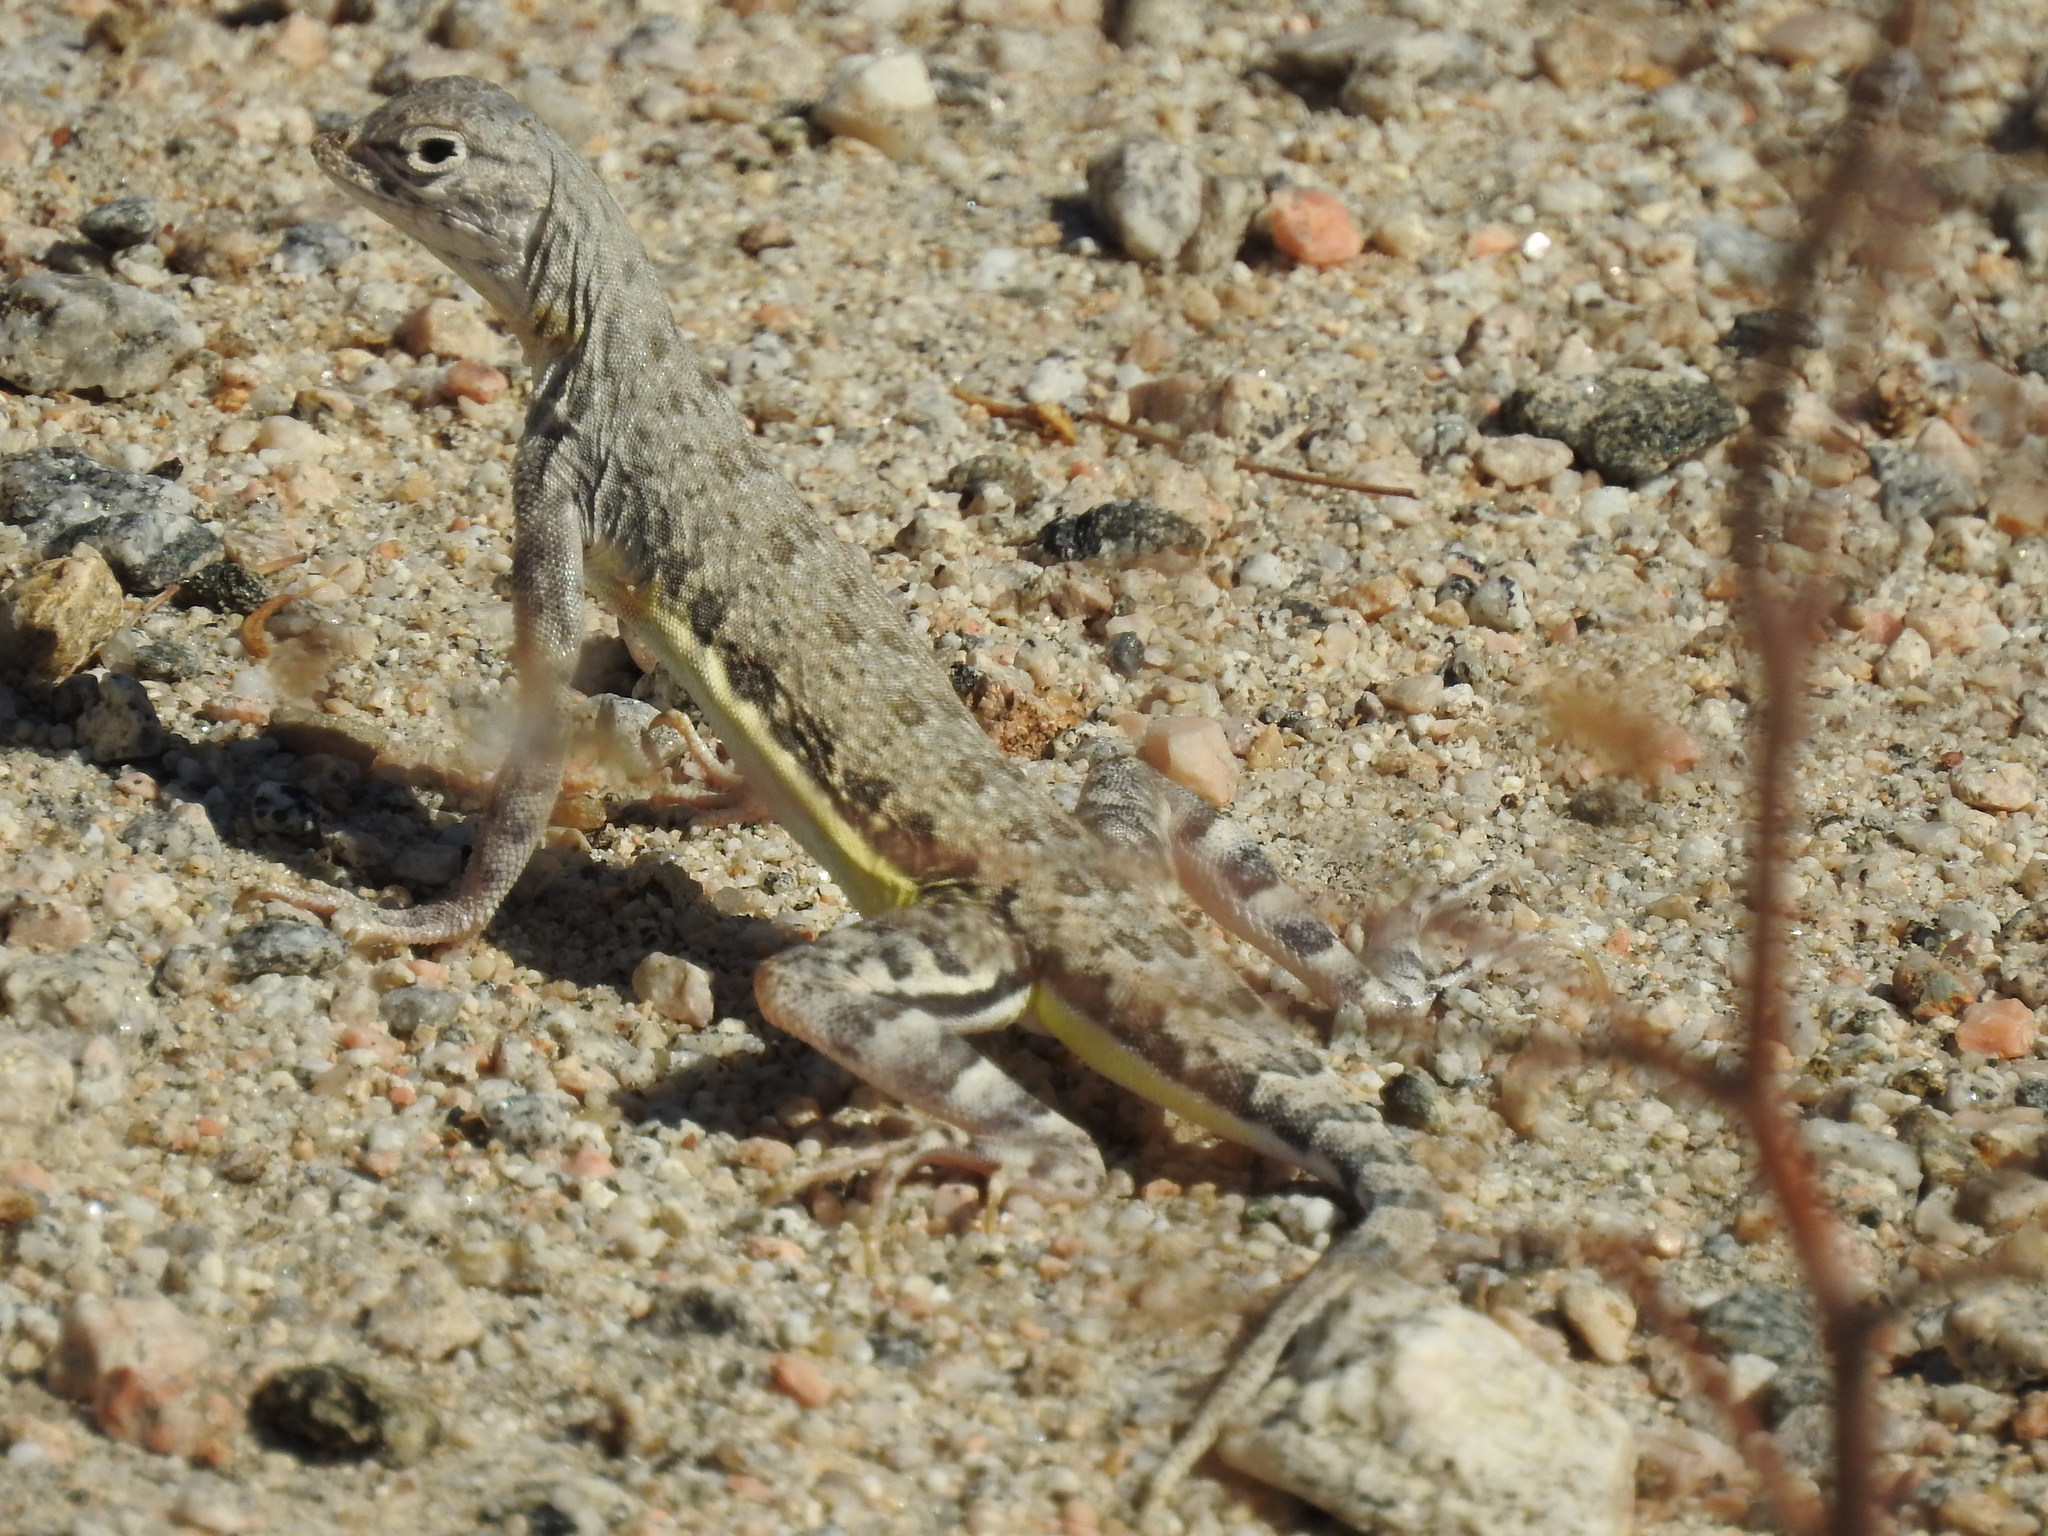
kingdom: Animalia
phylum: Chordata
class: Squamata
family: Phrynosomatidae
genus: Callisaurus
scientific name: Callisaurus draconoides
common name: Zebra-tailed lizard
